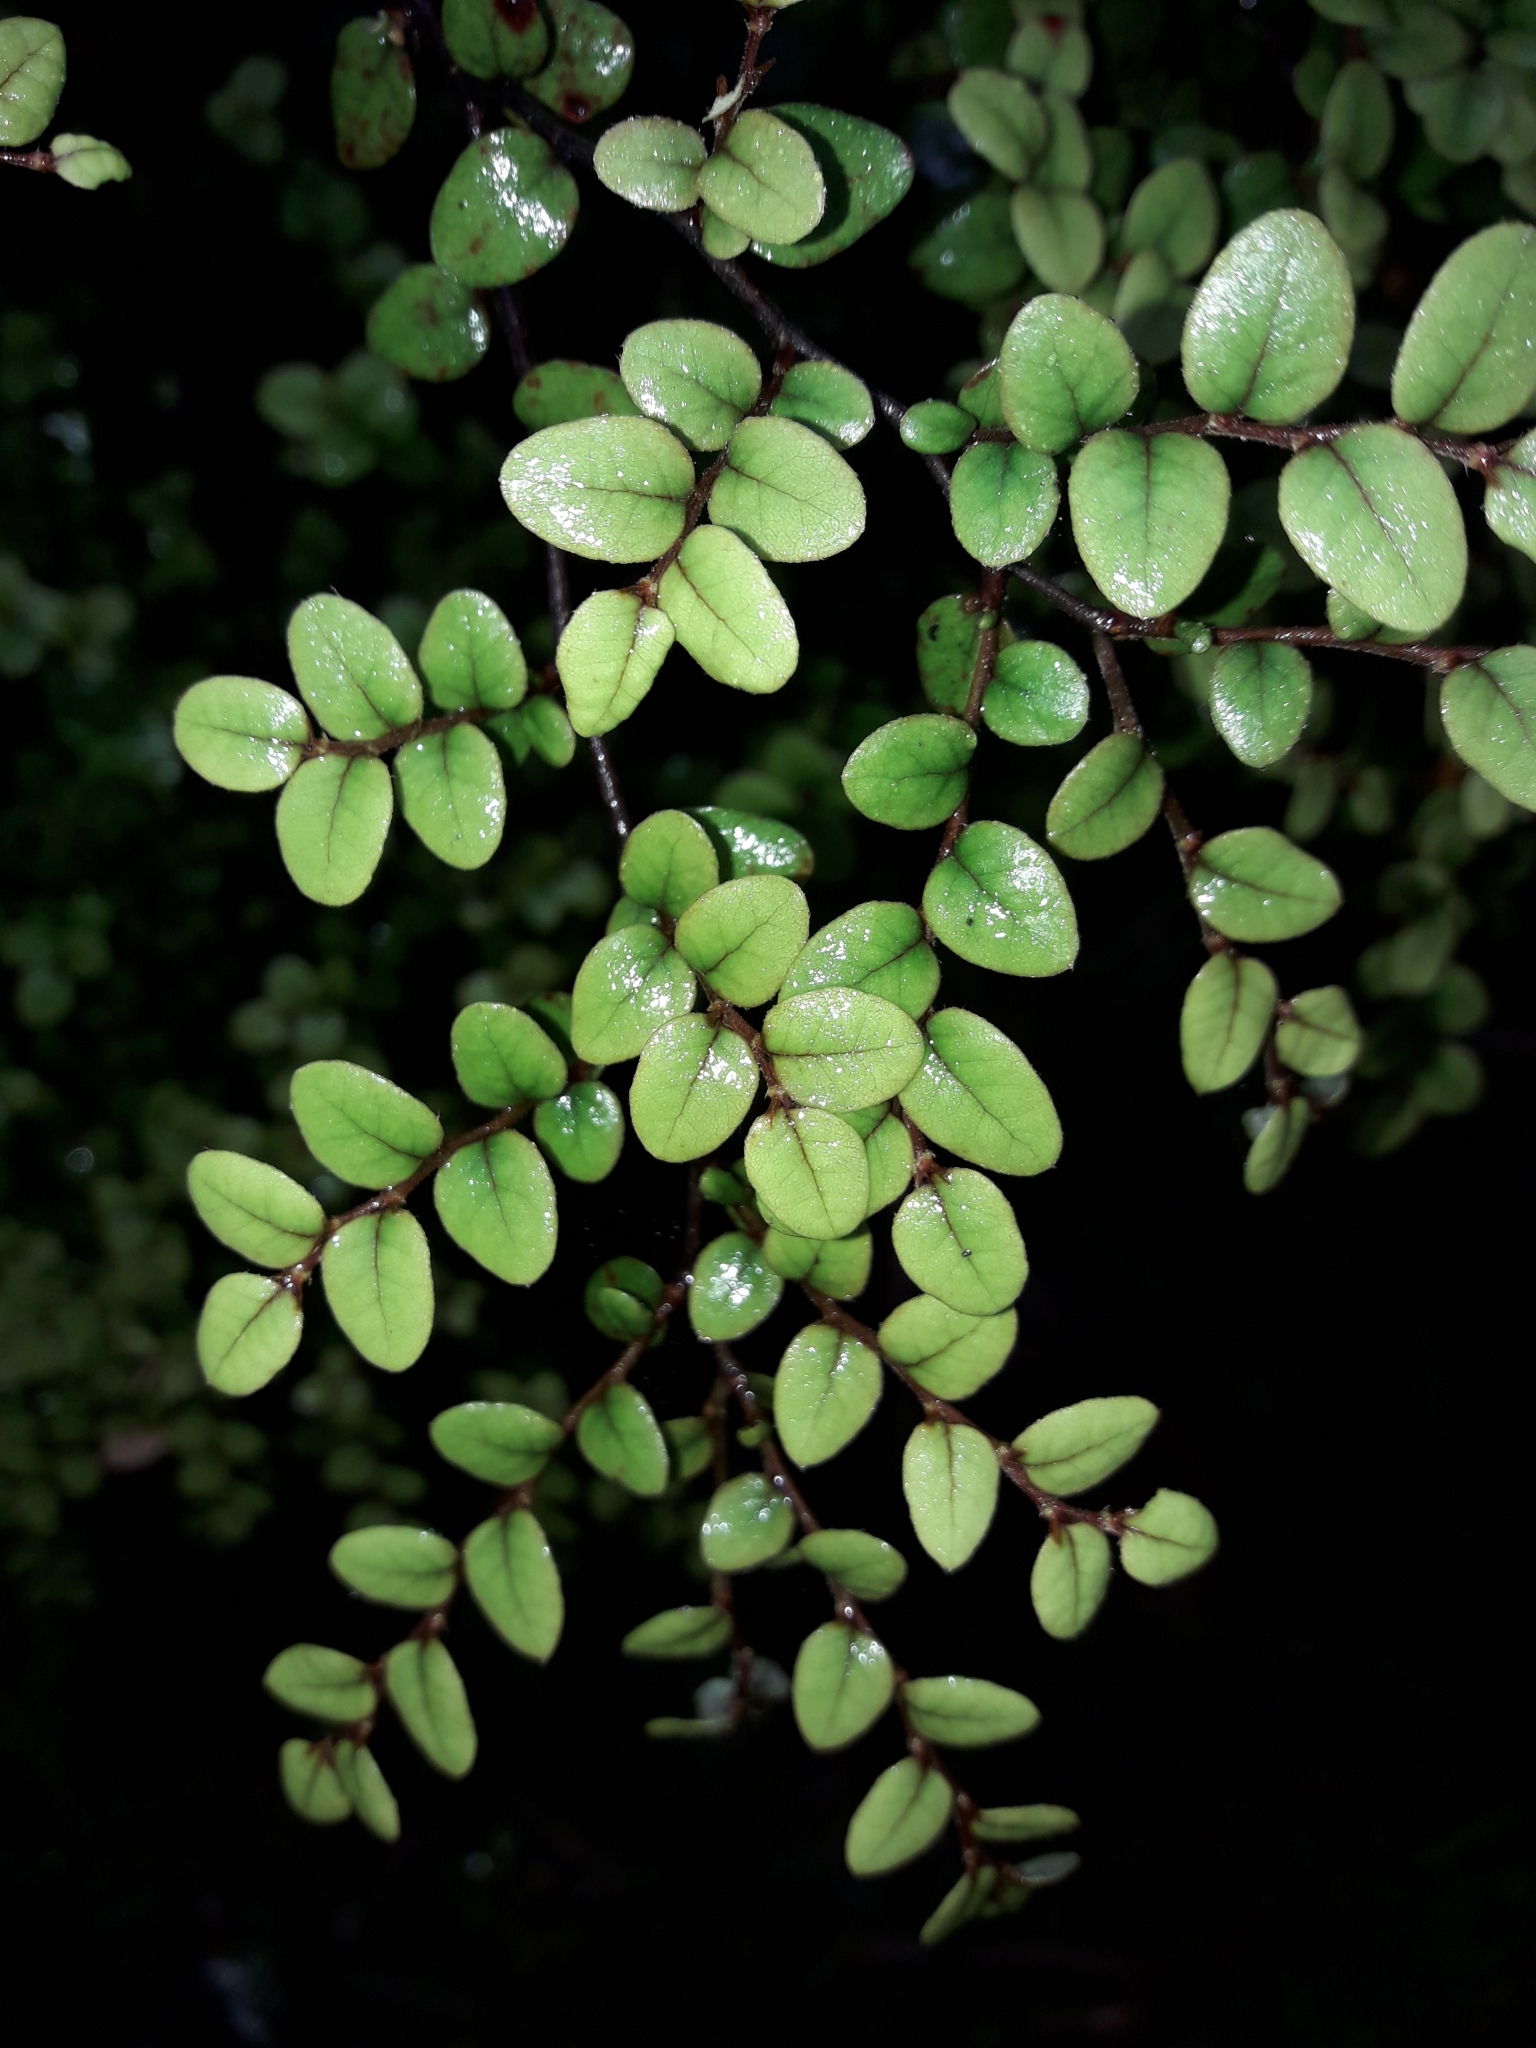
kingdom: Plantae
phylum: Tracheophyta
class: Magnoliopsida
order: Fagales
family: Nothofagaceae
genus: Nothofagus
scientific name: Nothofagus cliffortioides
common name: Mountain beech
